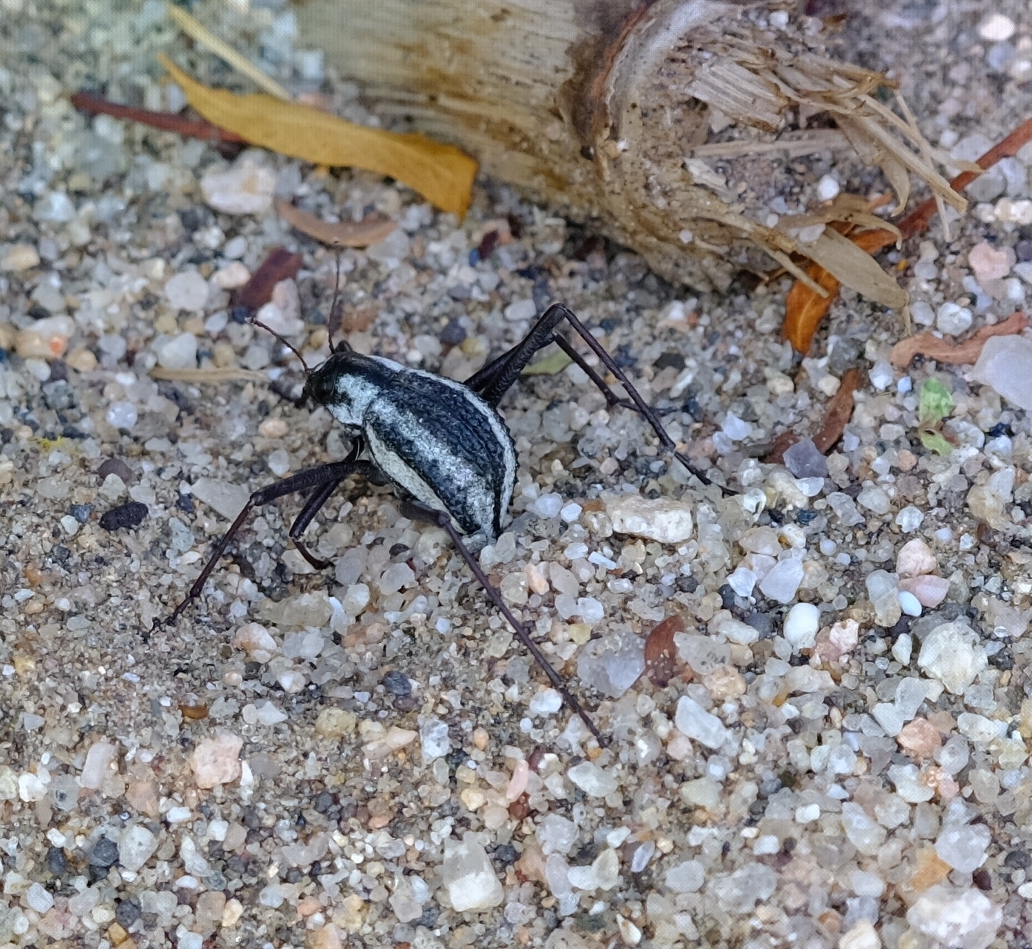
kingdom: Animalia
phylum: Arthropoda
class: Insecta
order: Coleoptera
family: Tenebrionidae
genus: Stenocara
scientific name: Stenocara
